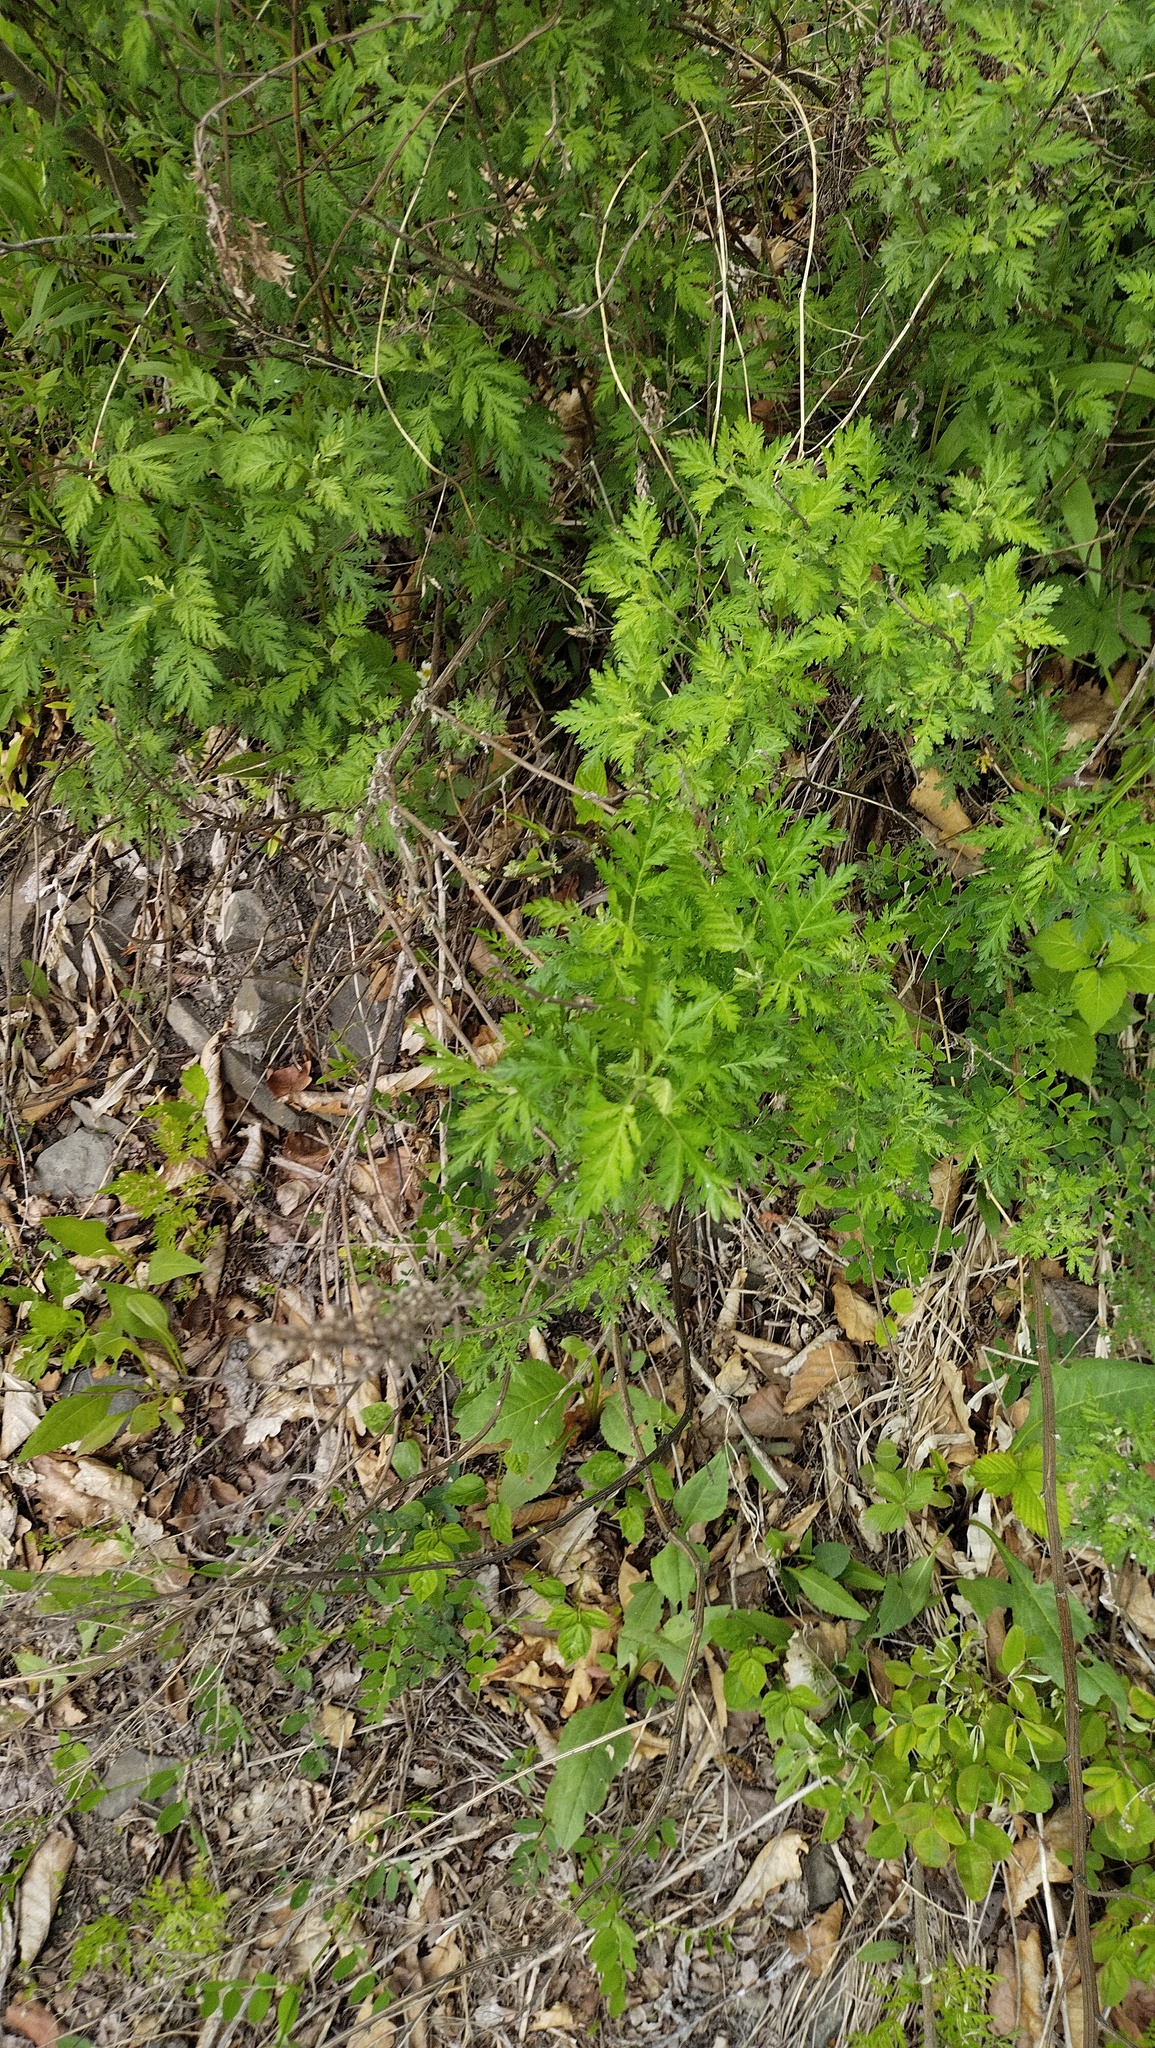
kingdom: Plantae
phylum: Tracheophyta
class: Magnoliopsida
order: Asterales
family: Asteraceae
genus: Artemisia
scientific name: Artemisia gmelinii
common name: Gmelin's wormwood
